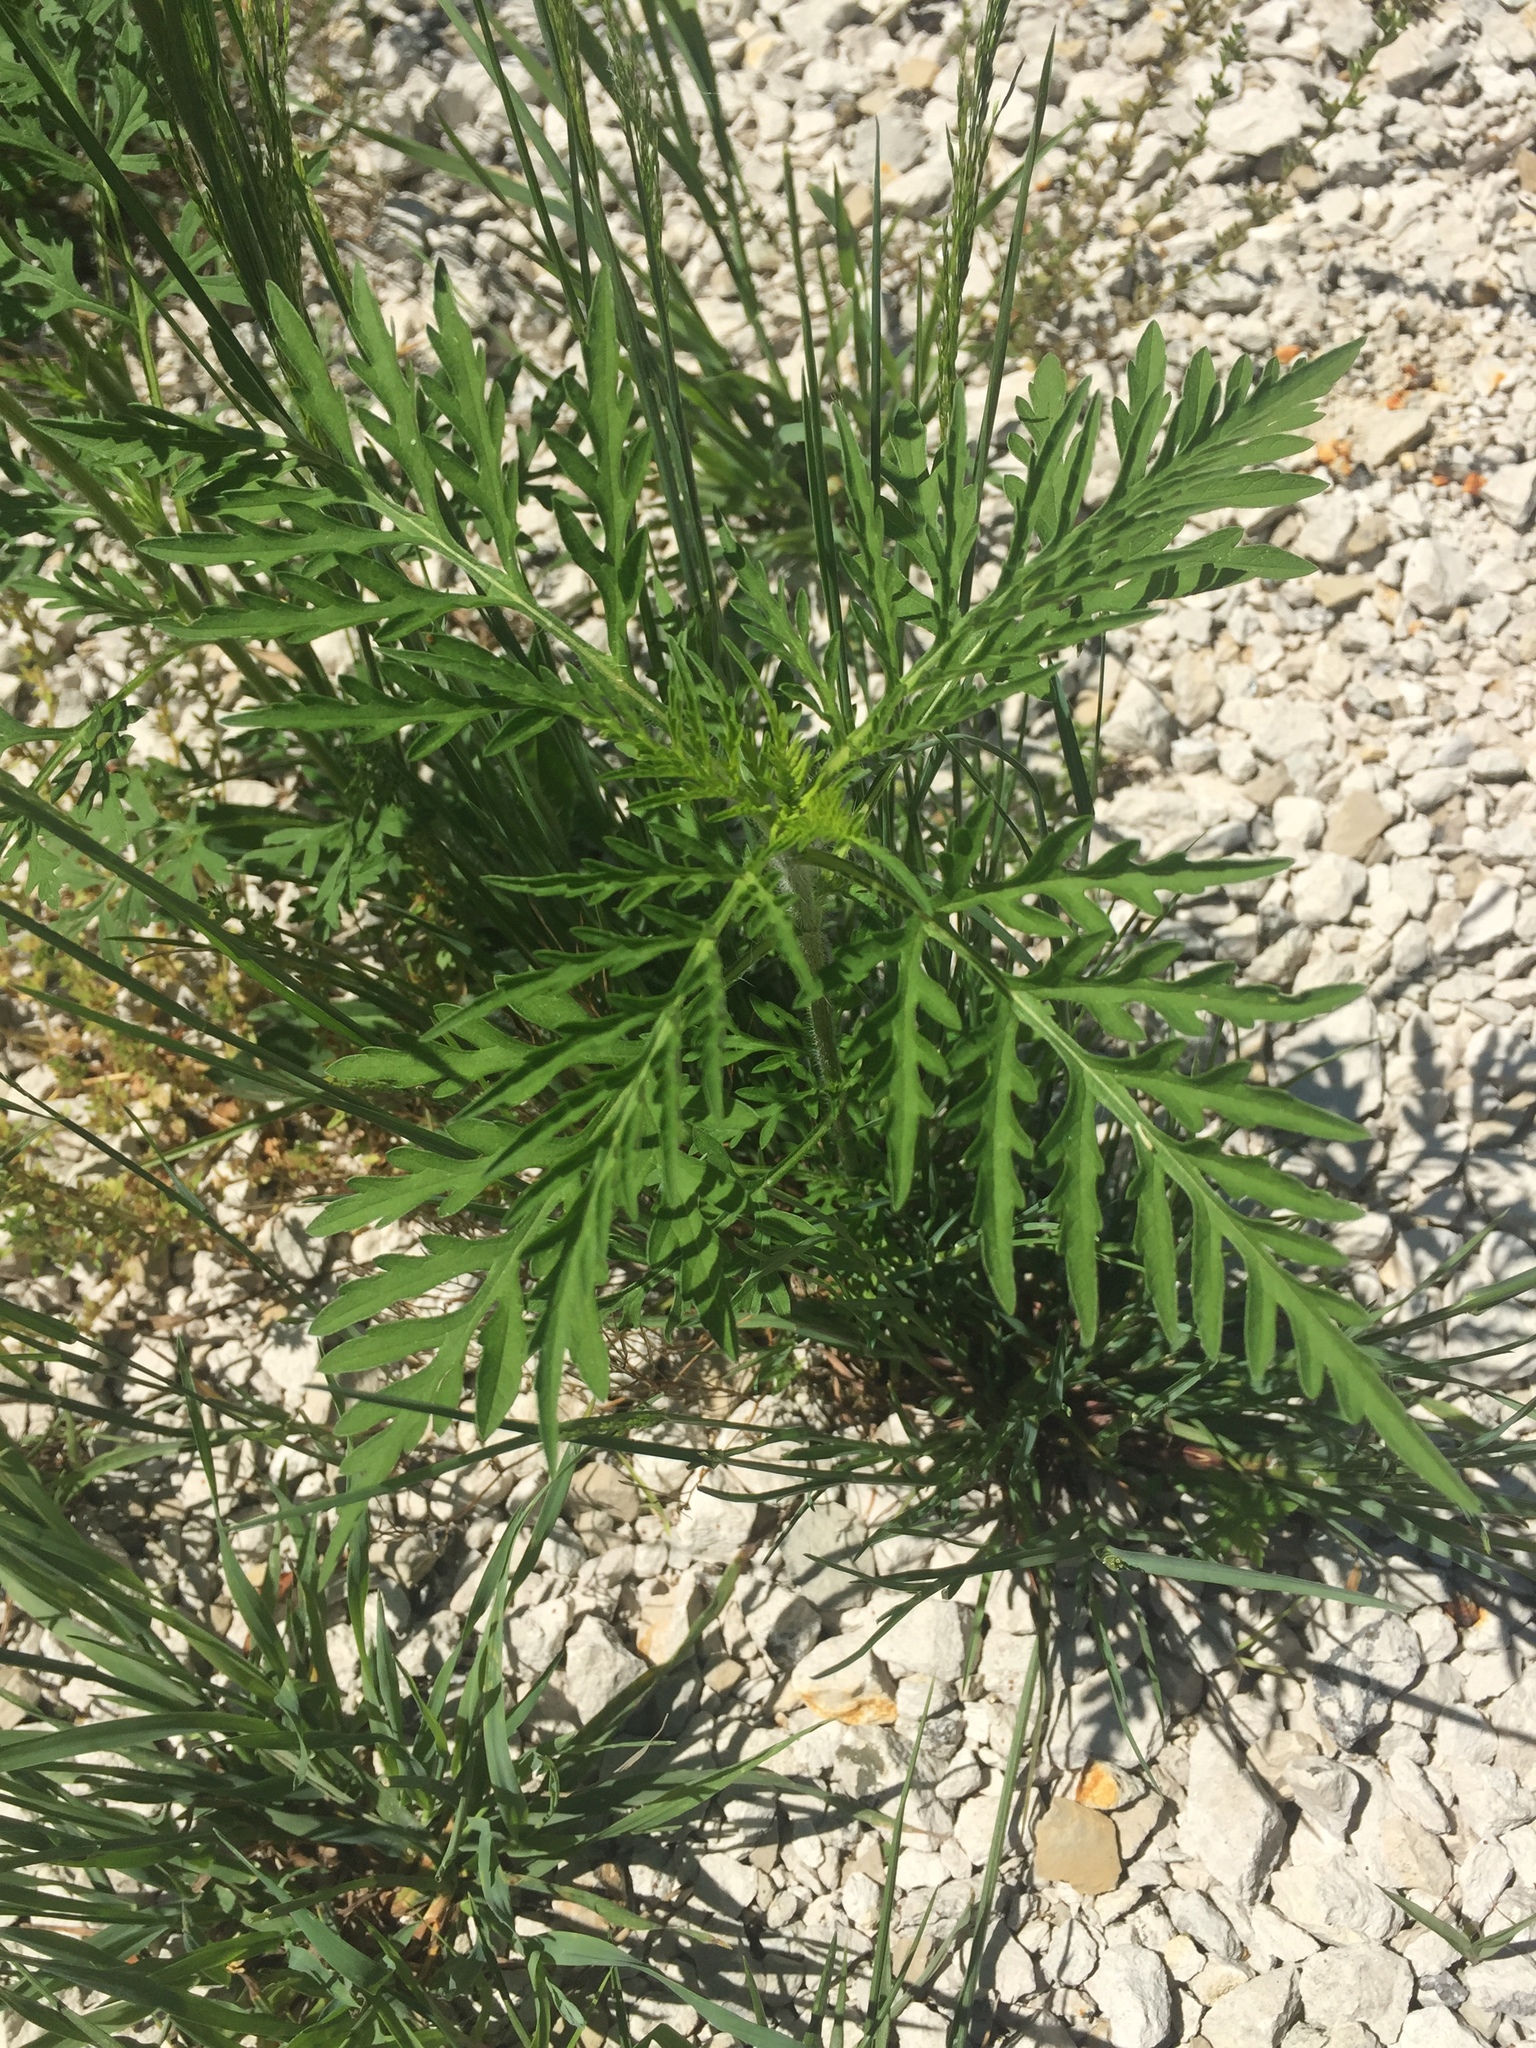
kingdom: Plantae
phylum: Tracheophyta
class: Magnoliopsida
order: Asterales
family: Asteraceae
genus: Ambrosia
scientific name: Ambrosia artemisiifolia
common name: Annual ragweed
